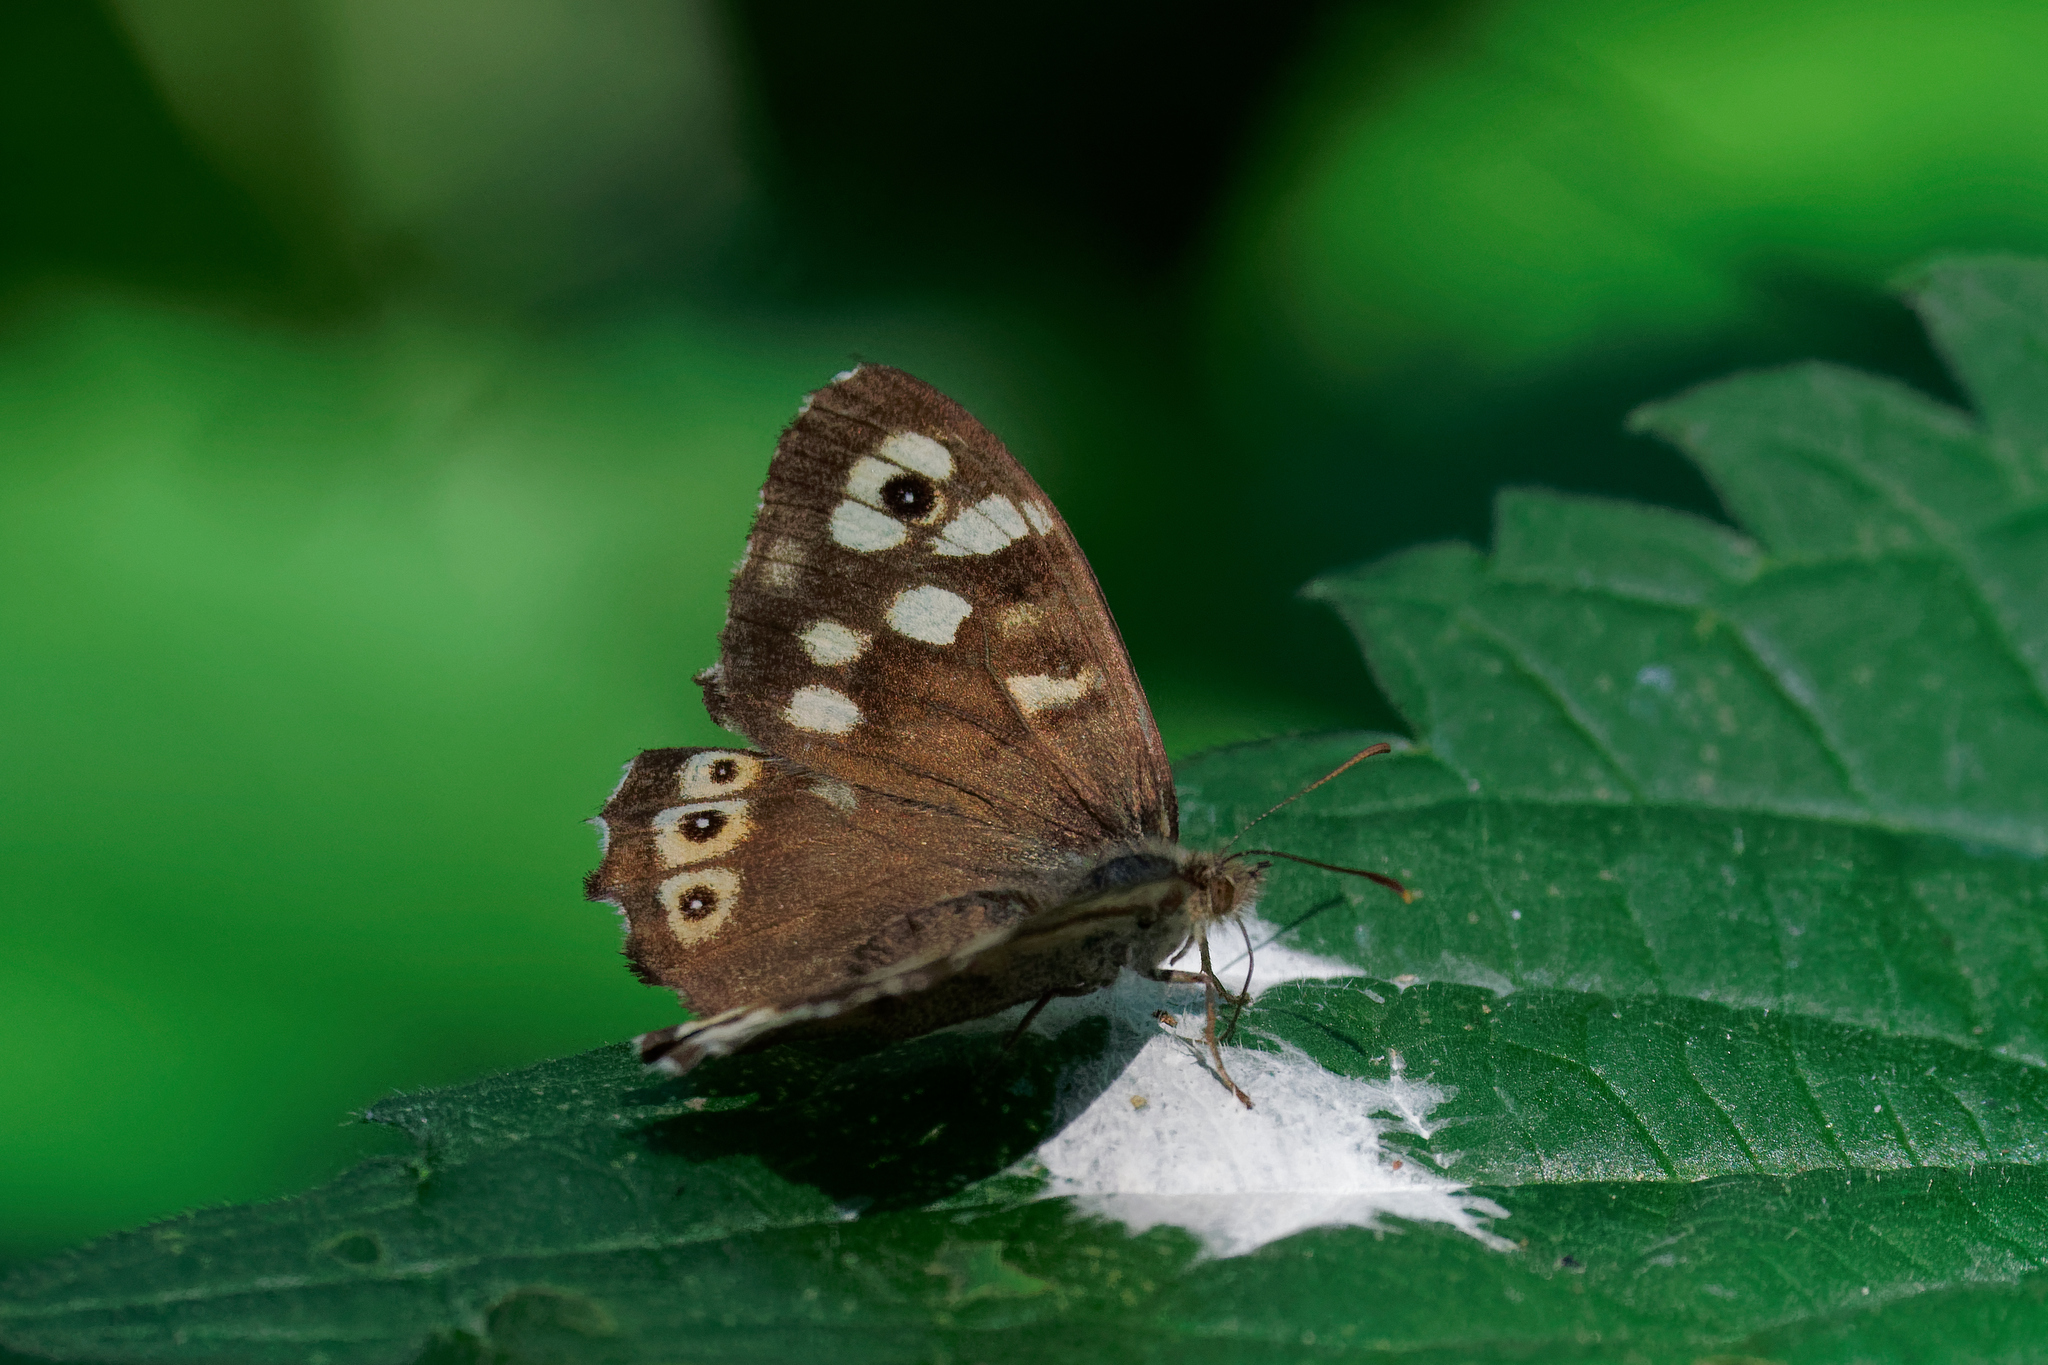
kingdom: Animalia
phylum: Arthropoda
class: Insecta
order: Lepidoptera
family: Nymphalidae
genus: Pararge
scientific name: Pararge aegeria
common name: Speckled wood
